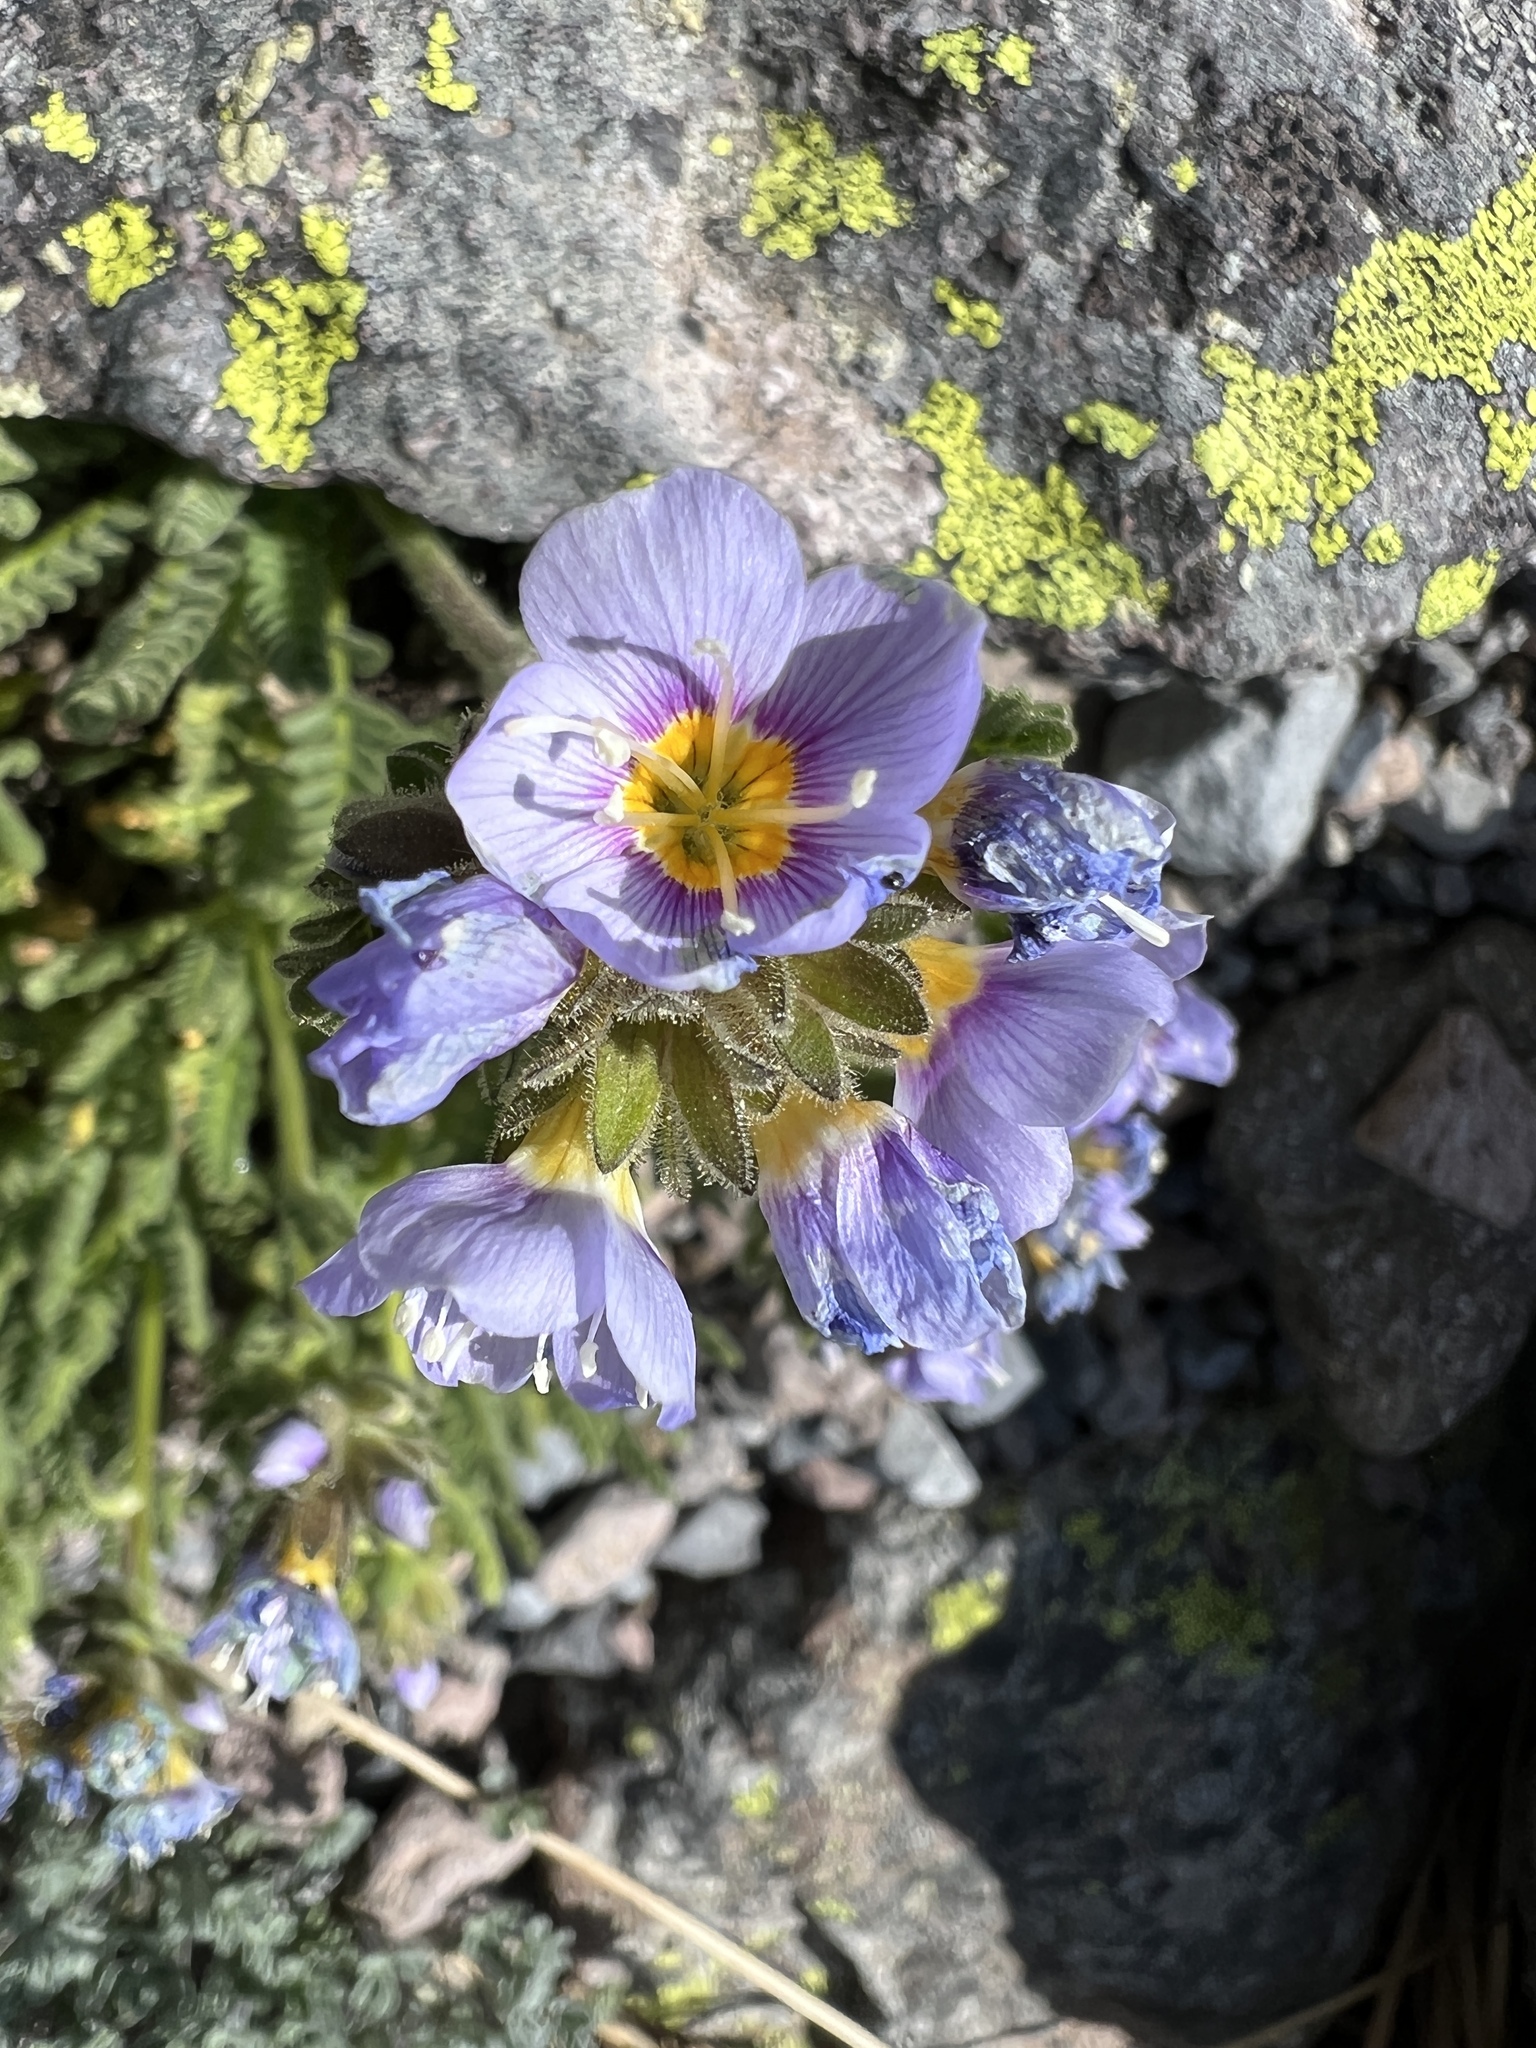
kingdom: Plantae
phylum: Tracheophyta
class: Magnoliopsida
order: Ericales
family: Polemoniaceae
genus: Polemonium
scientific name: Polemonium elegans
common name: Elegant jacob's-ladder
